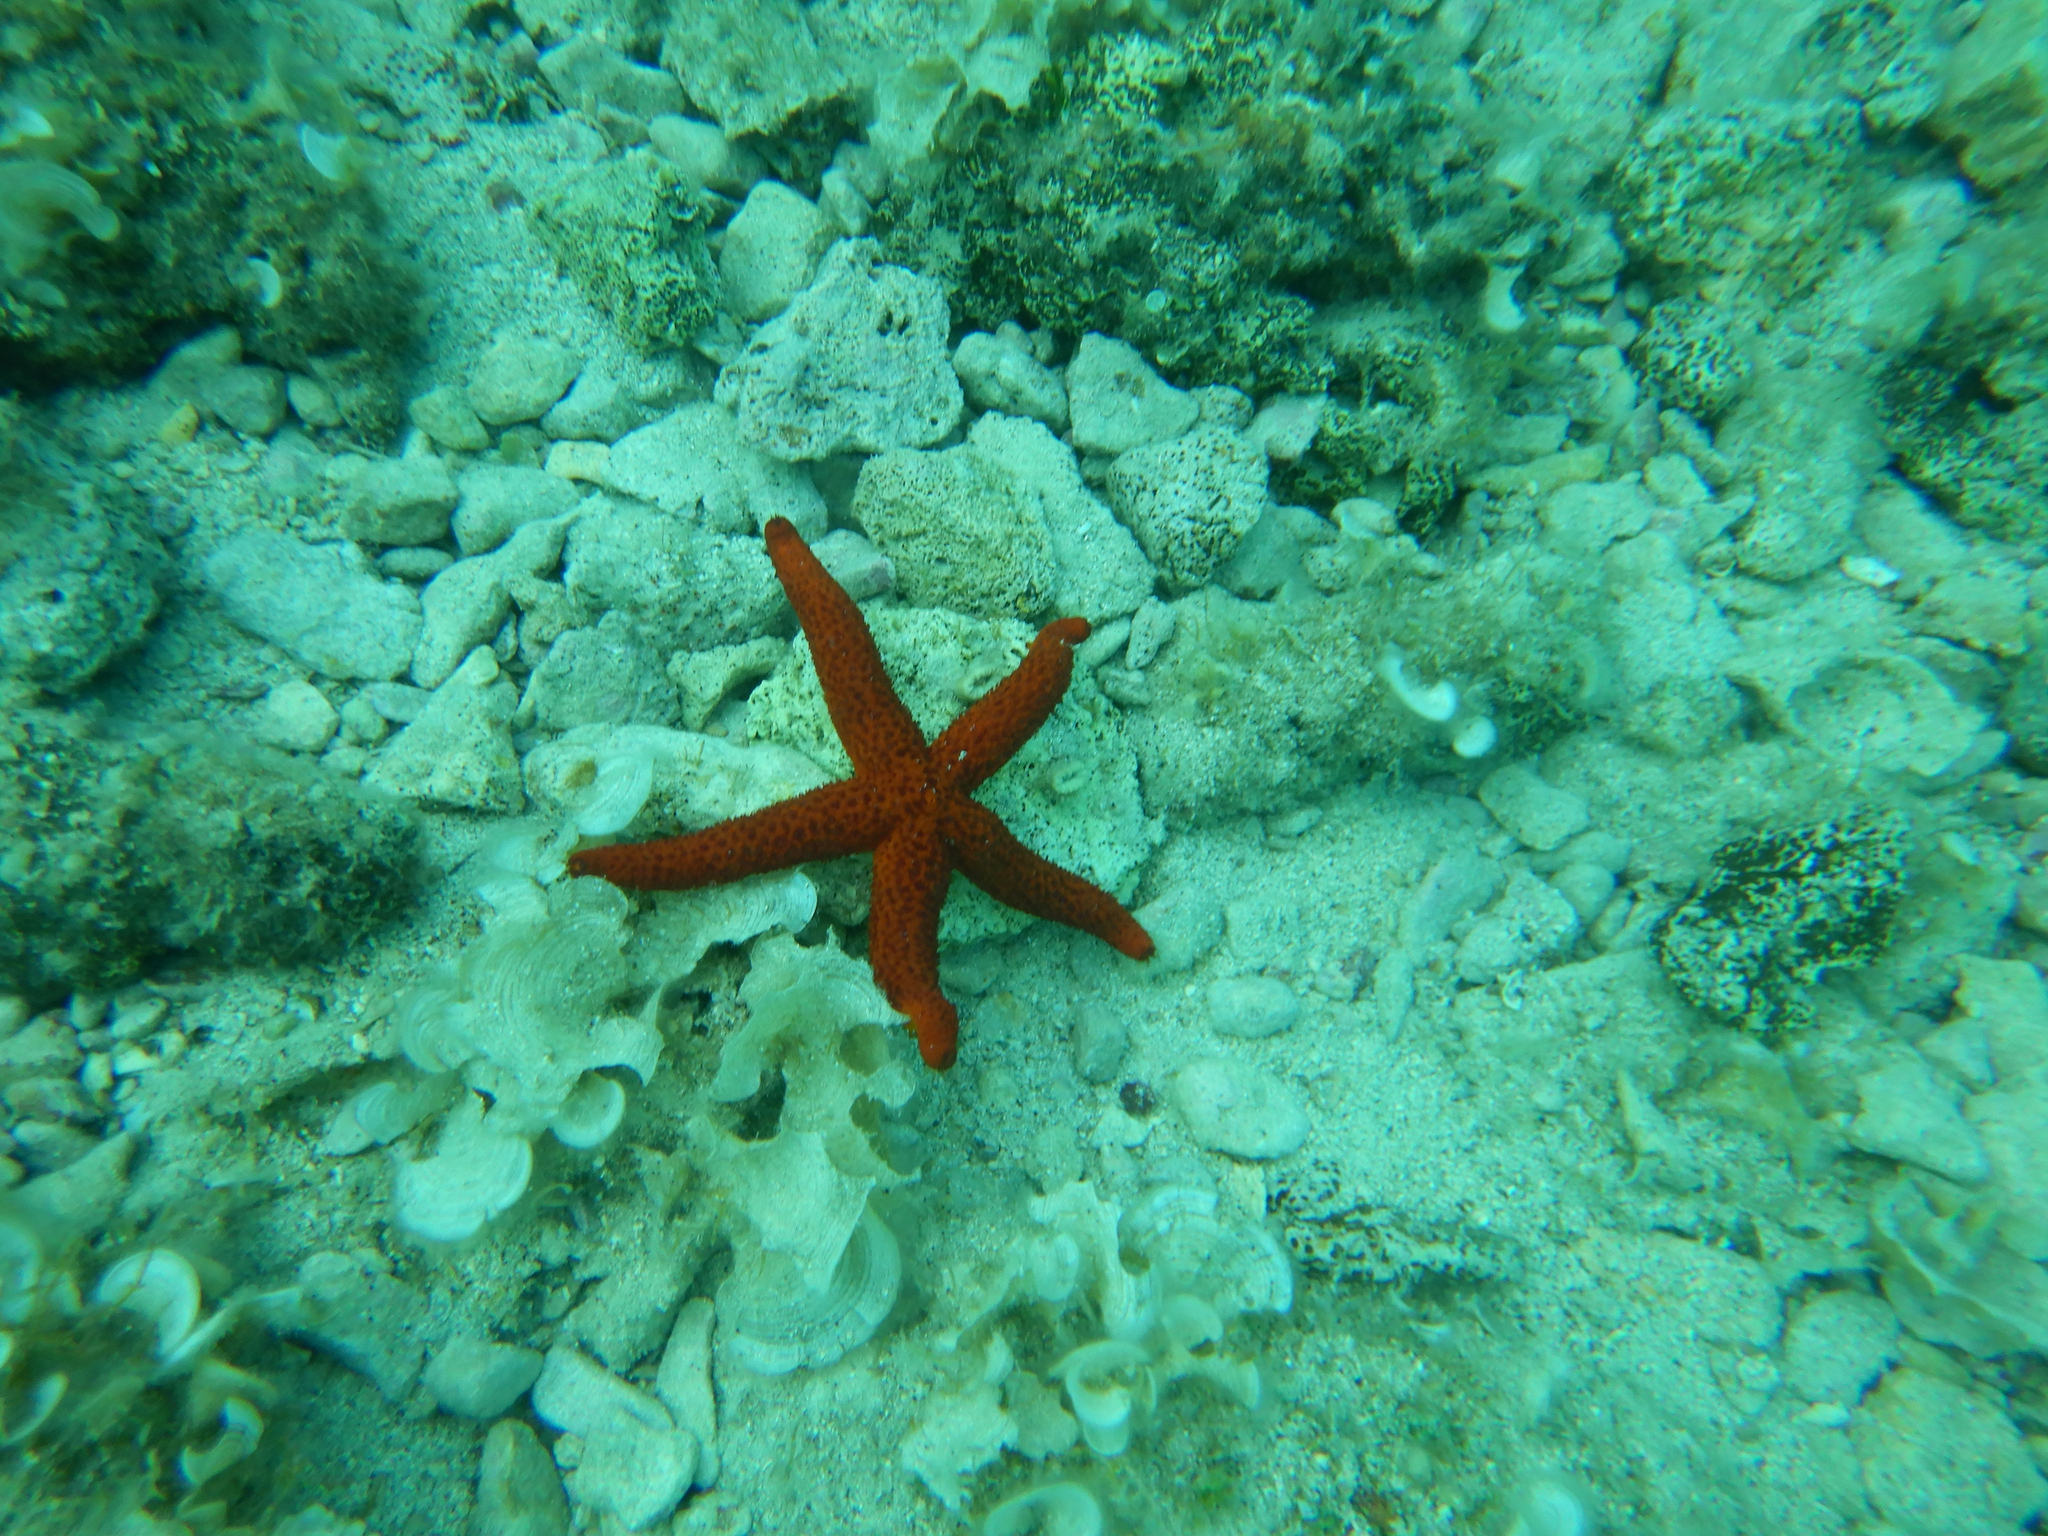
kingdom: Animalia
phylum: Echinodermata
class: Asteroidea
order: Spinulosida
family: Echinasteridae
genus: Echinaster
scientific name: Echinaster sepositus
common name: Red starfish
